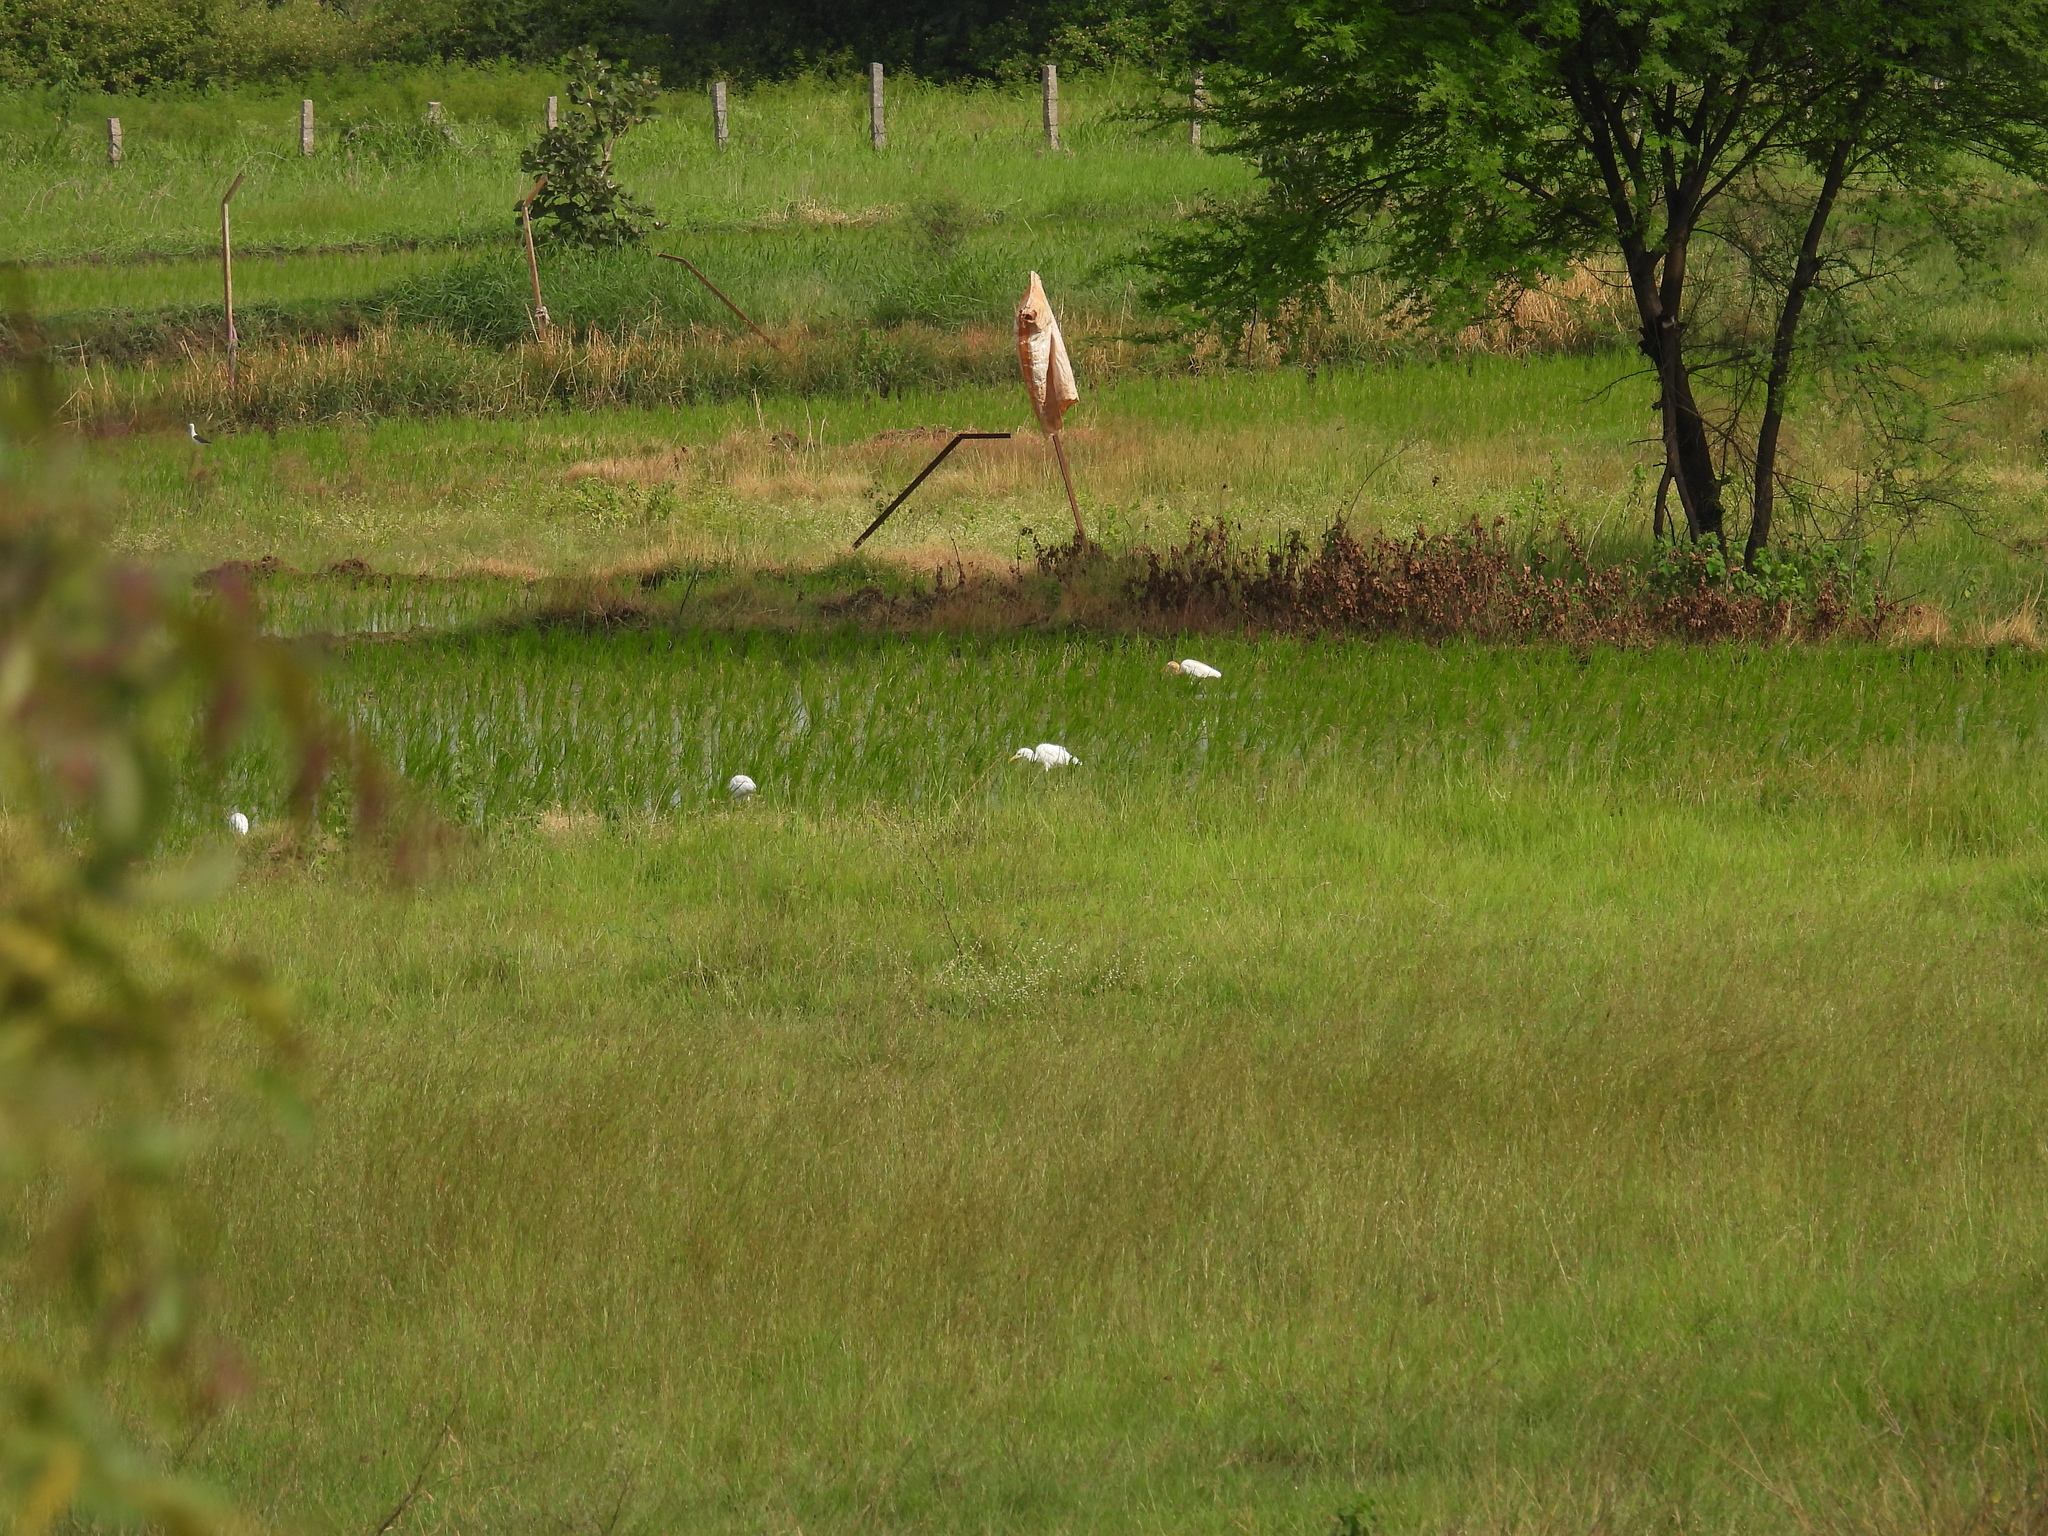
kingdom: Animalia
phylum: Chordata
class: Aves
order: Pelecaniformes
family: Ardeidae
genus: Bubulcus
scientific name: Bubulcus coromandus
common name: Eastern cattle egret
